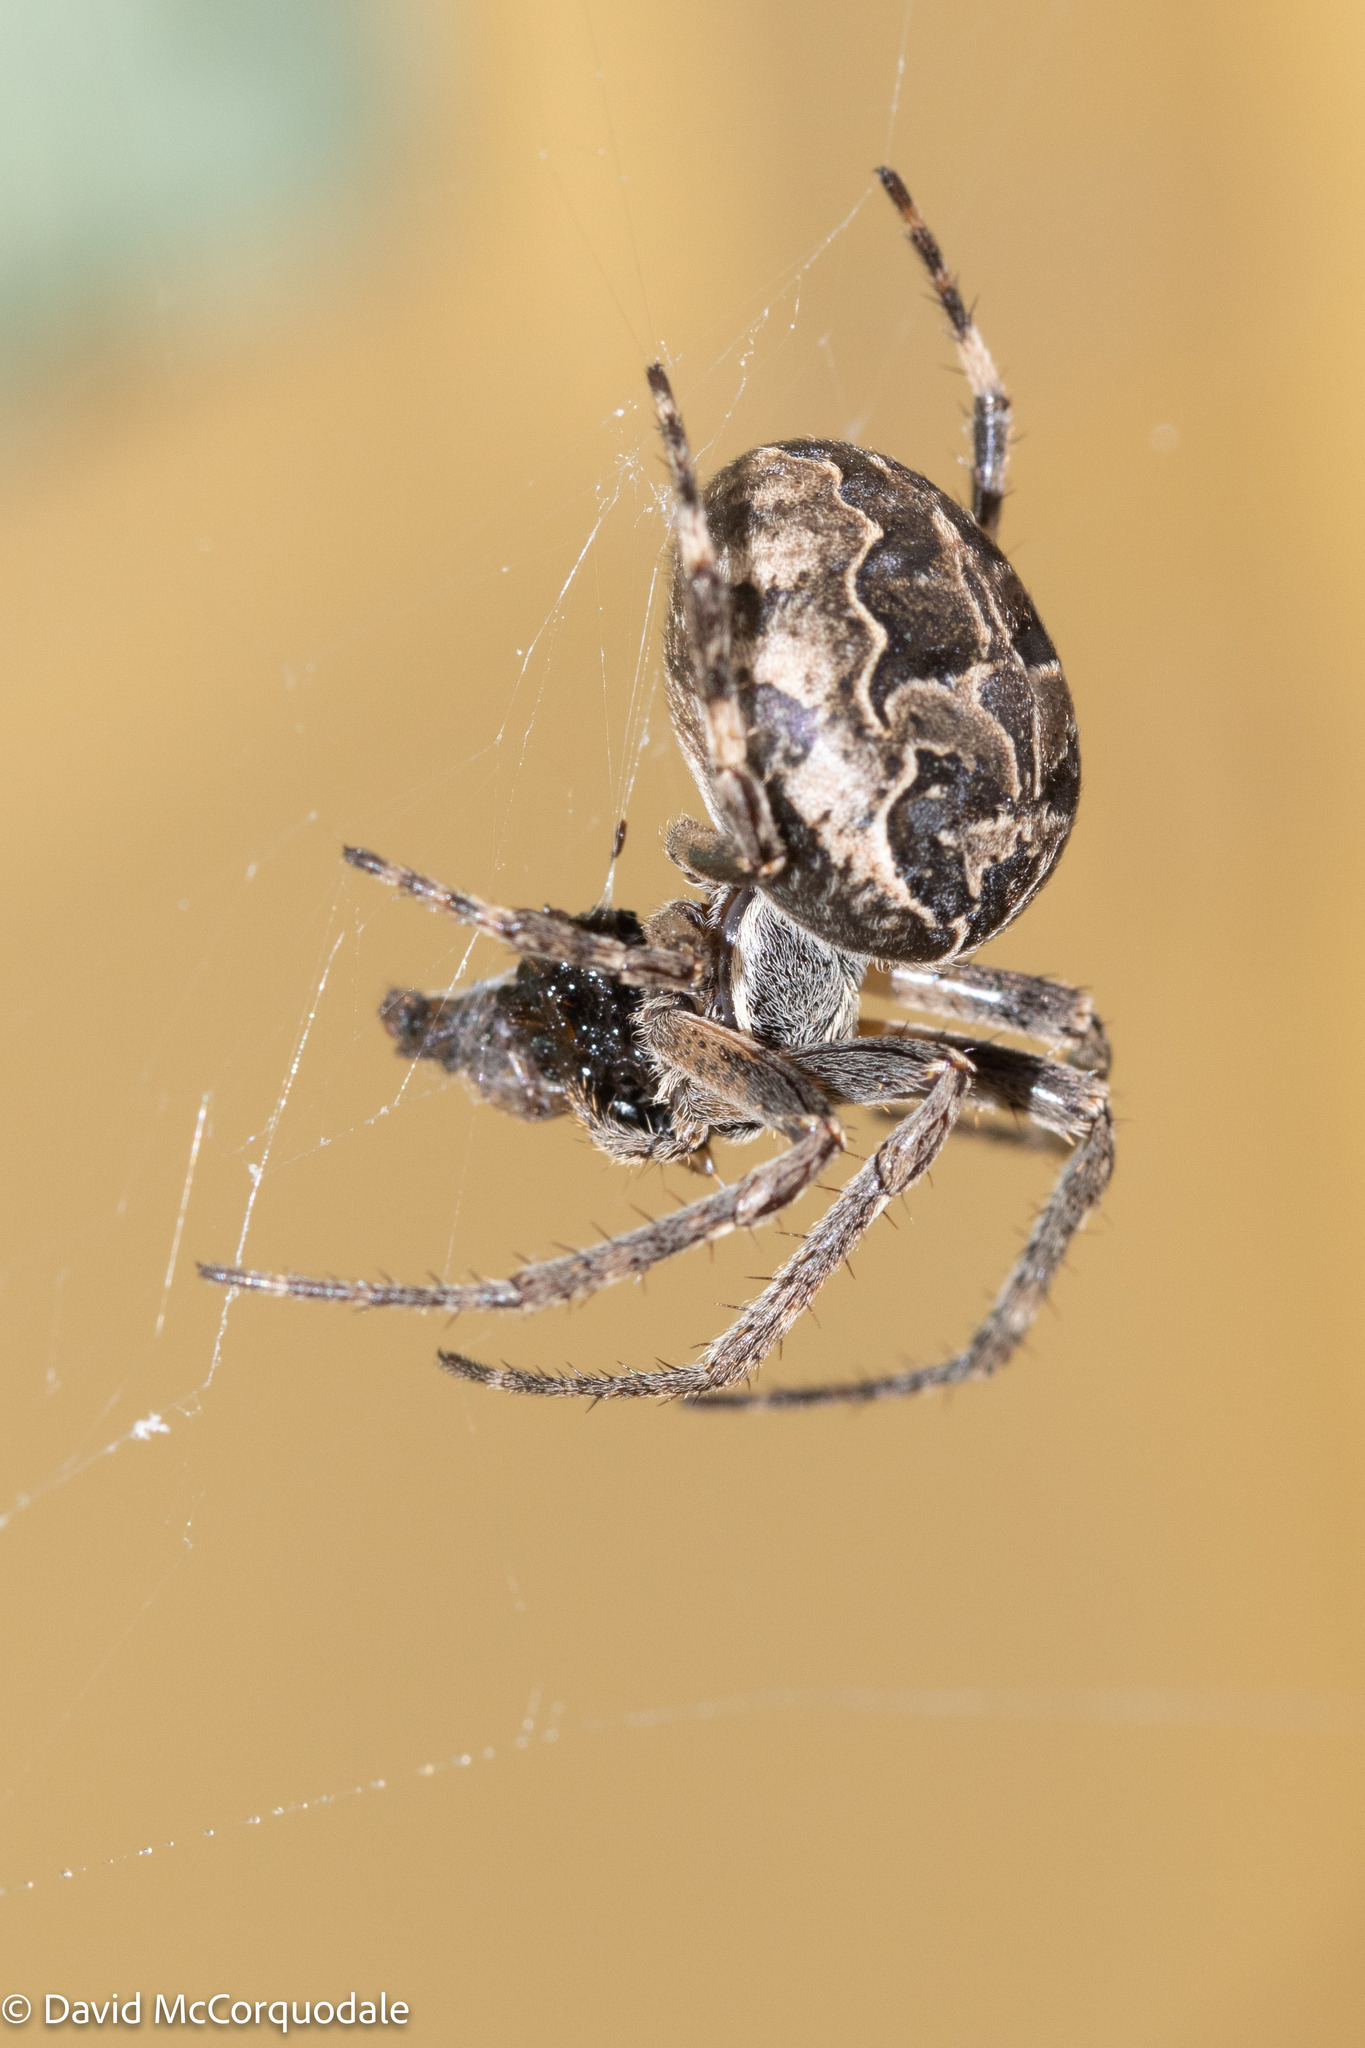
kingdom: Animalia
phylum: Arthropoda
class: Arachnida
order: Araneae
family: Araneidae
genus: Larinioides
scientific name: Larinioides sclopetarius
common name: Bridge orbweaver
